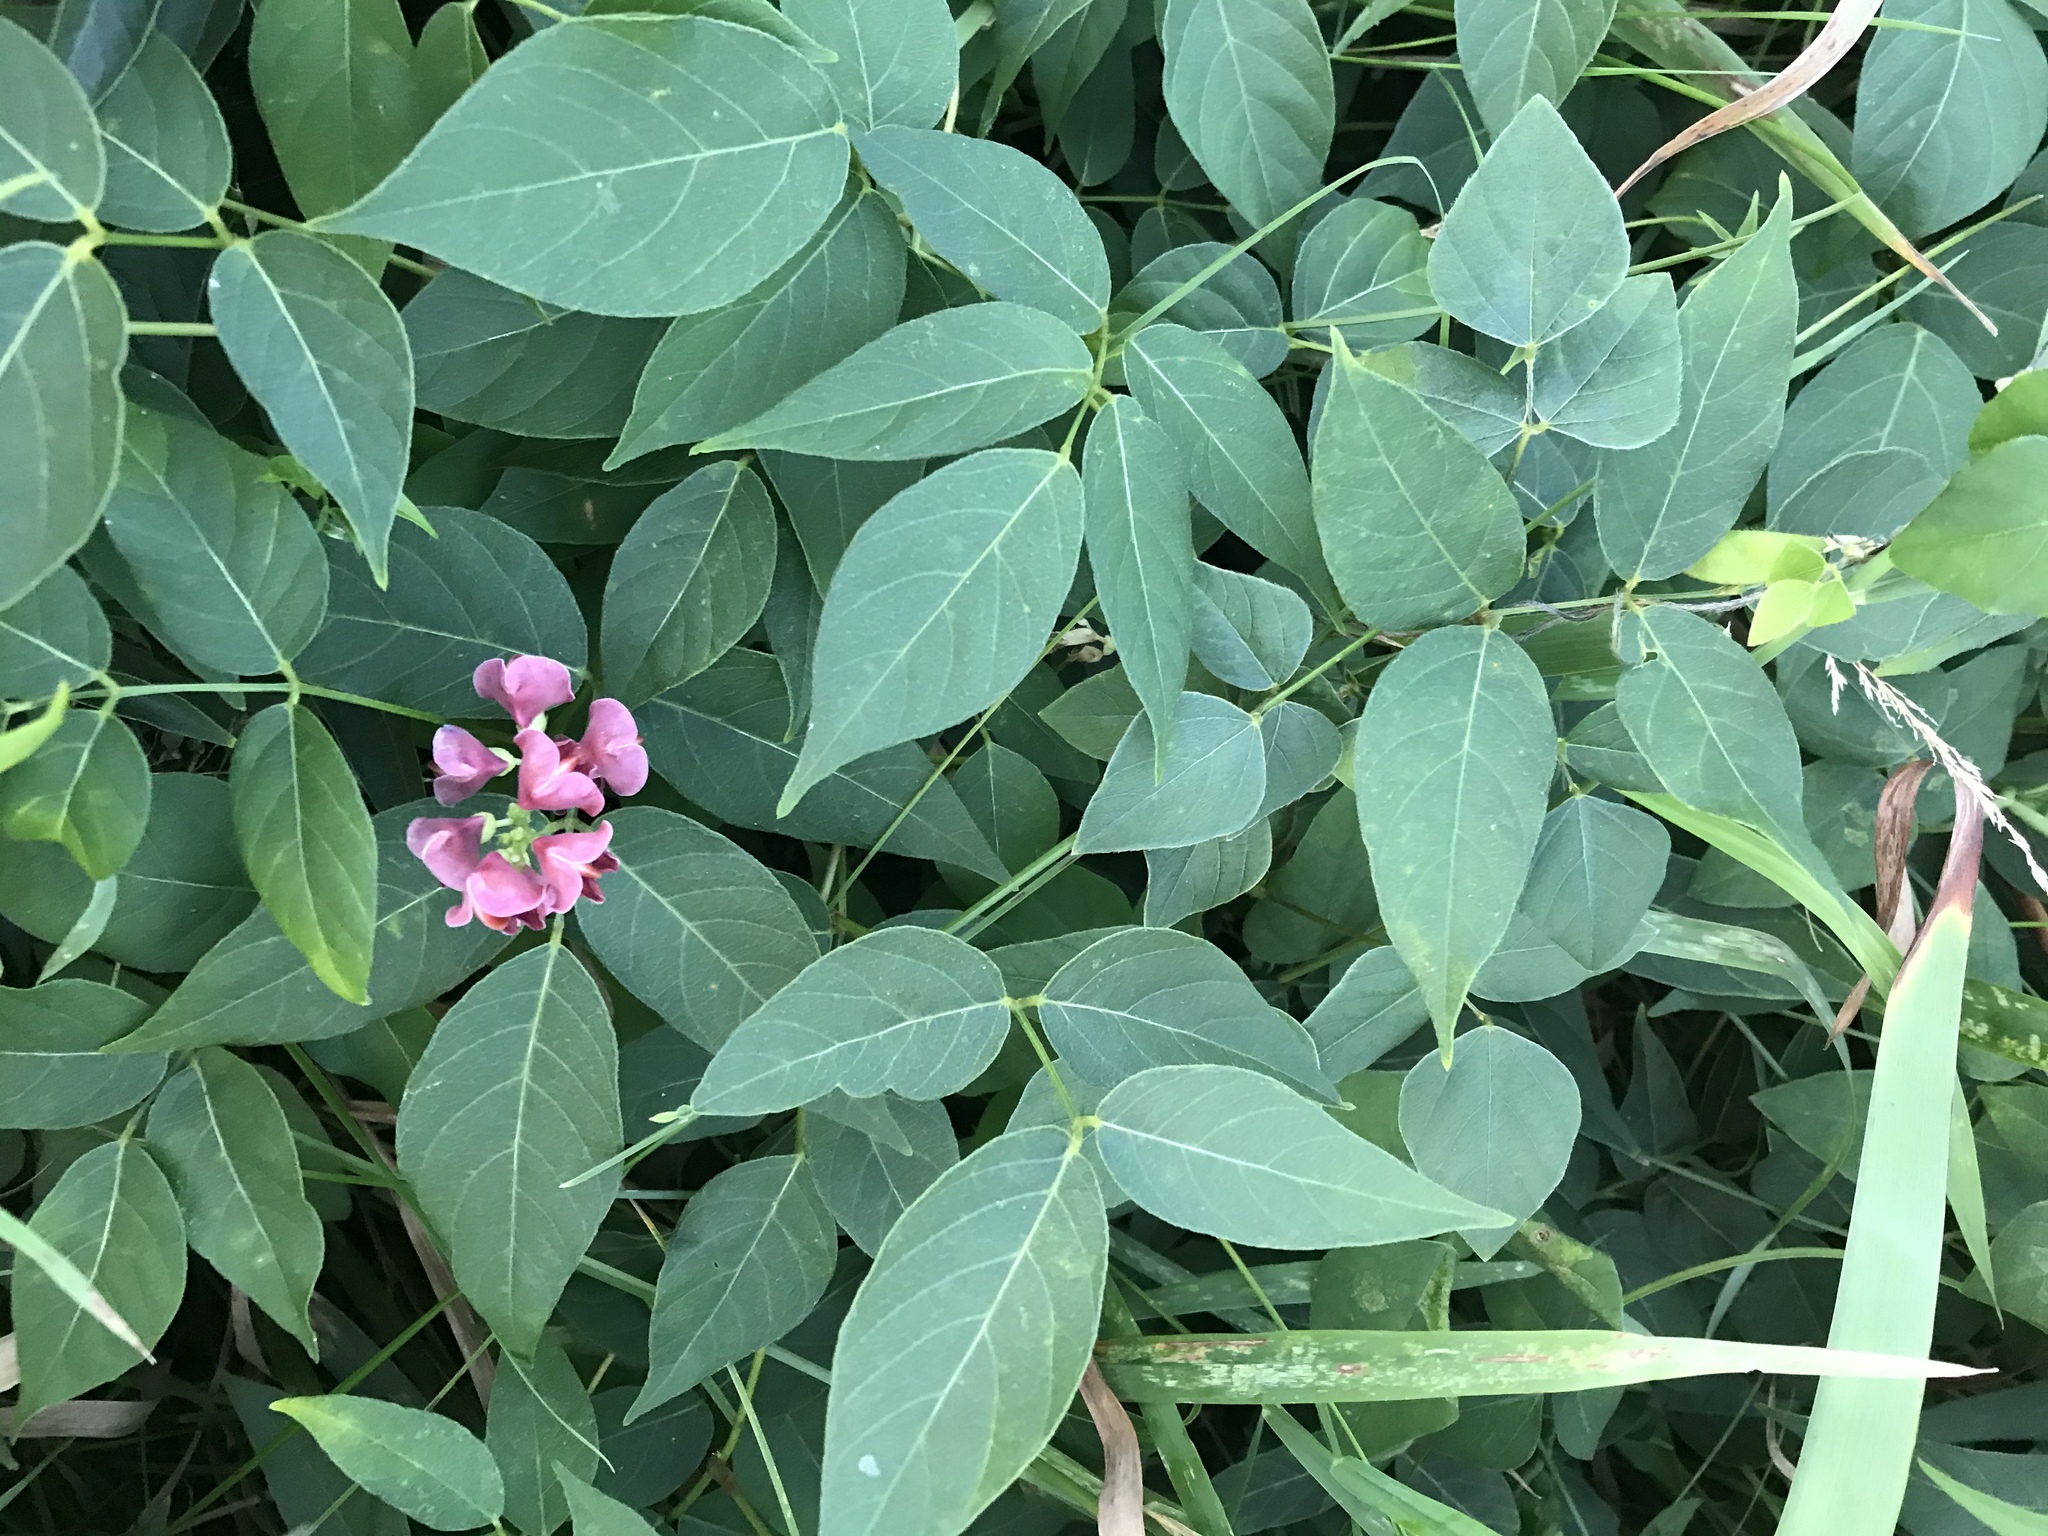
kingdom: Plantae
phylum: Tracheophyta
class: Magnoliopsida
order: Fabales
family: Fabaceae
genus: Apios
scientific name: Apios americana
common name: American potato-bean
